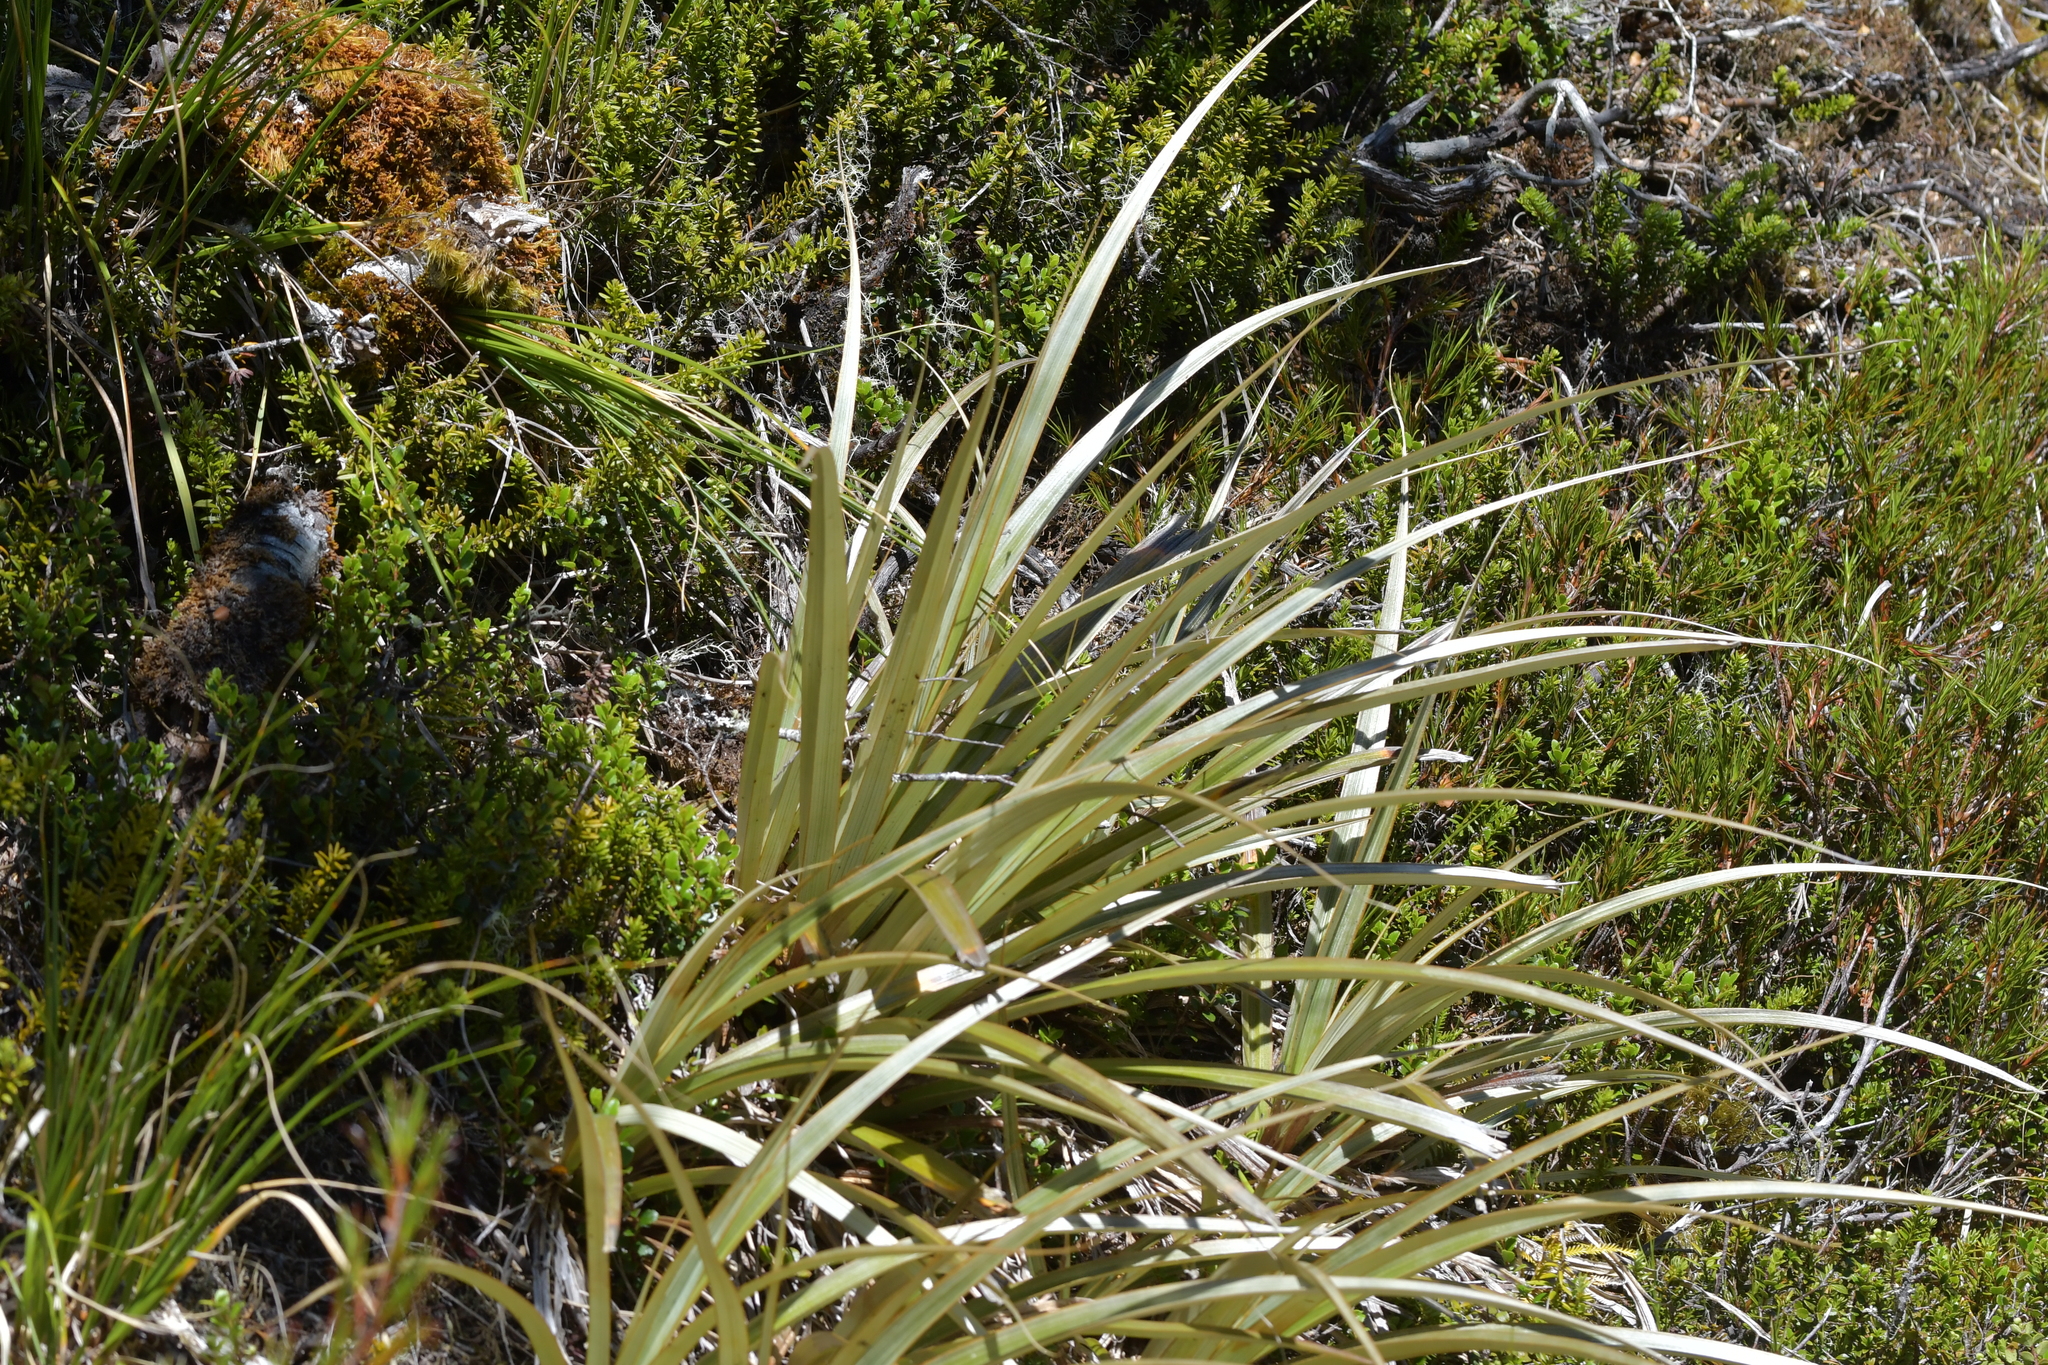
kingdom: Plantae
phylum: Tracheophyta
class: Liliopsida
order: Asparagales
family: Asteliaceae
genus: Astelia
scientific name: Astelia nervosa
